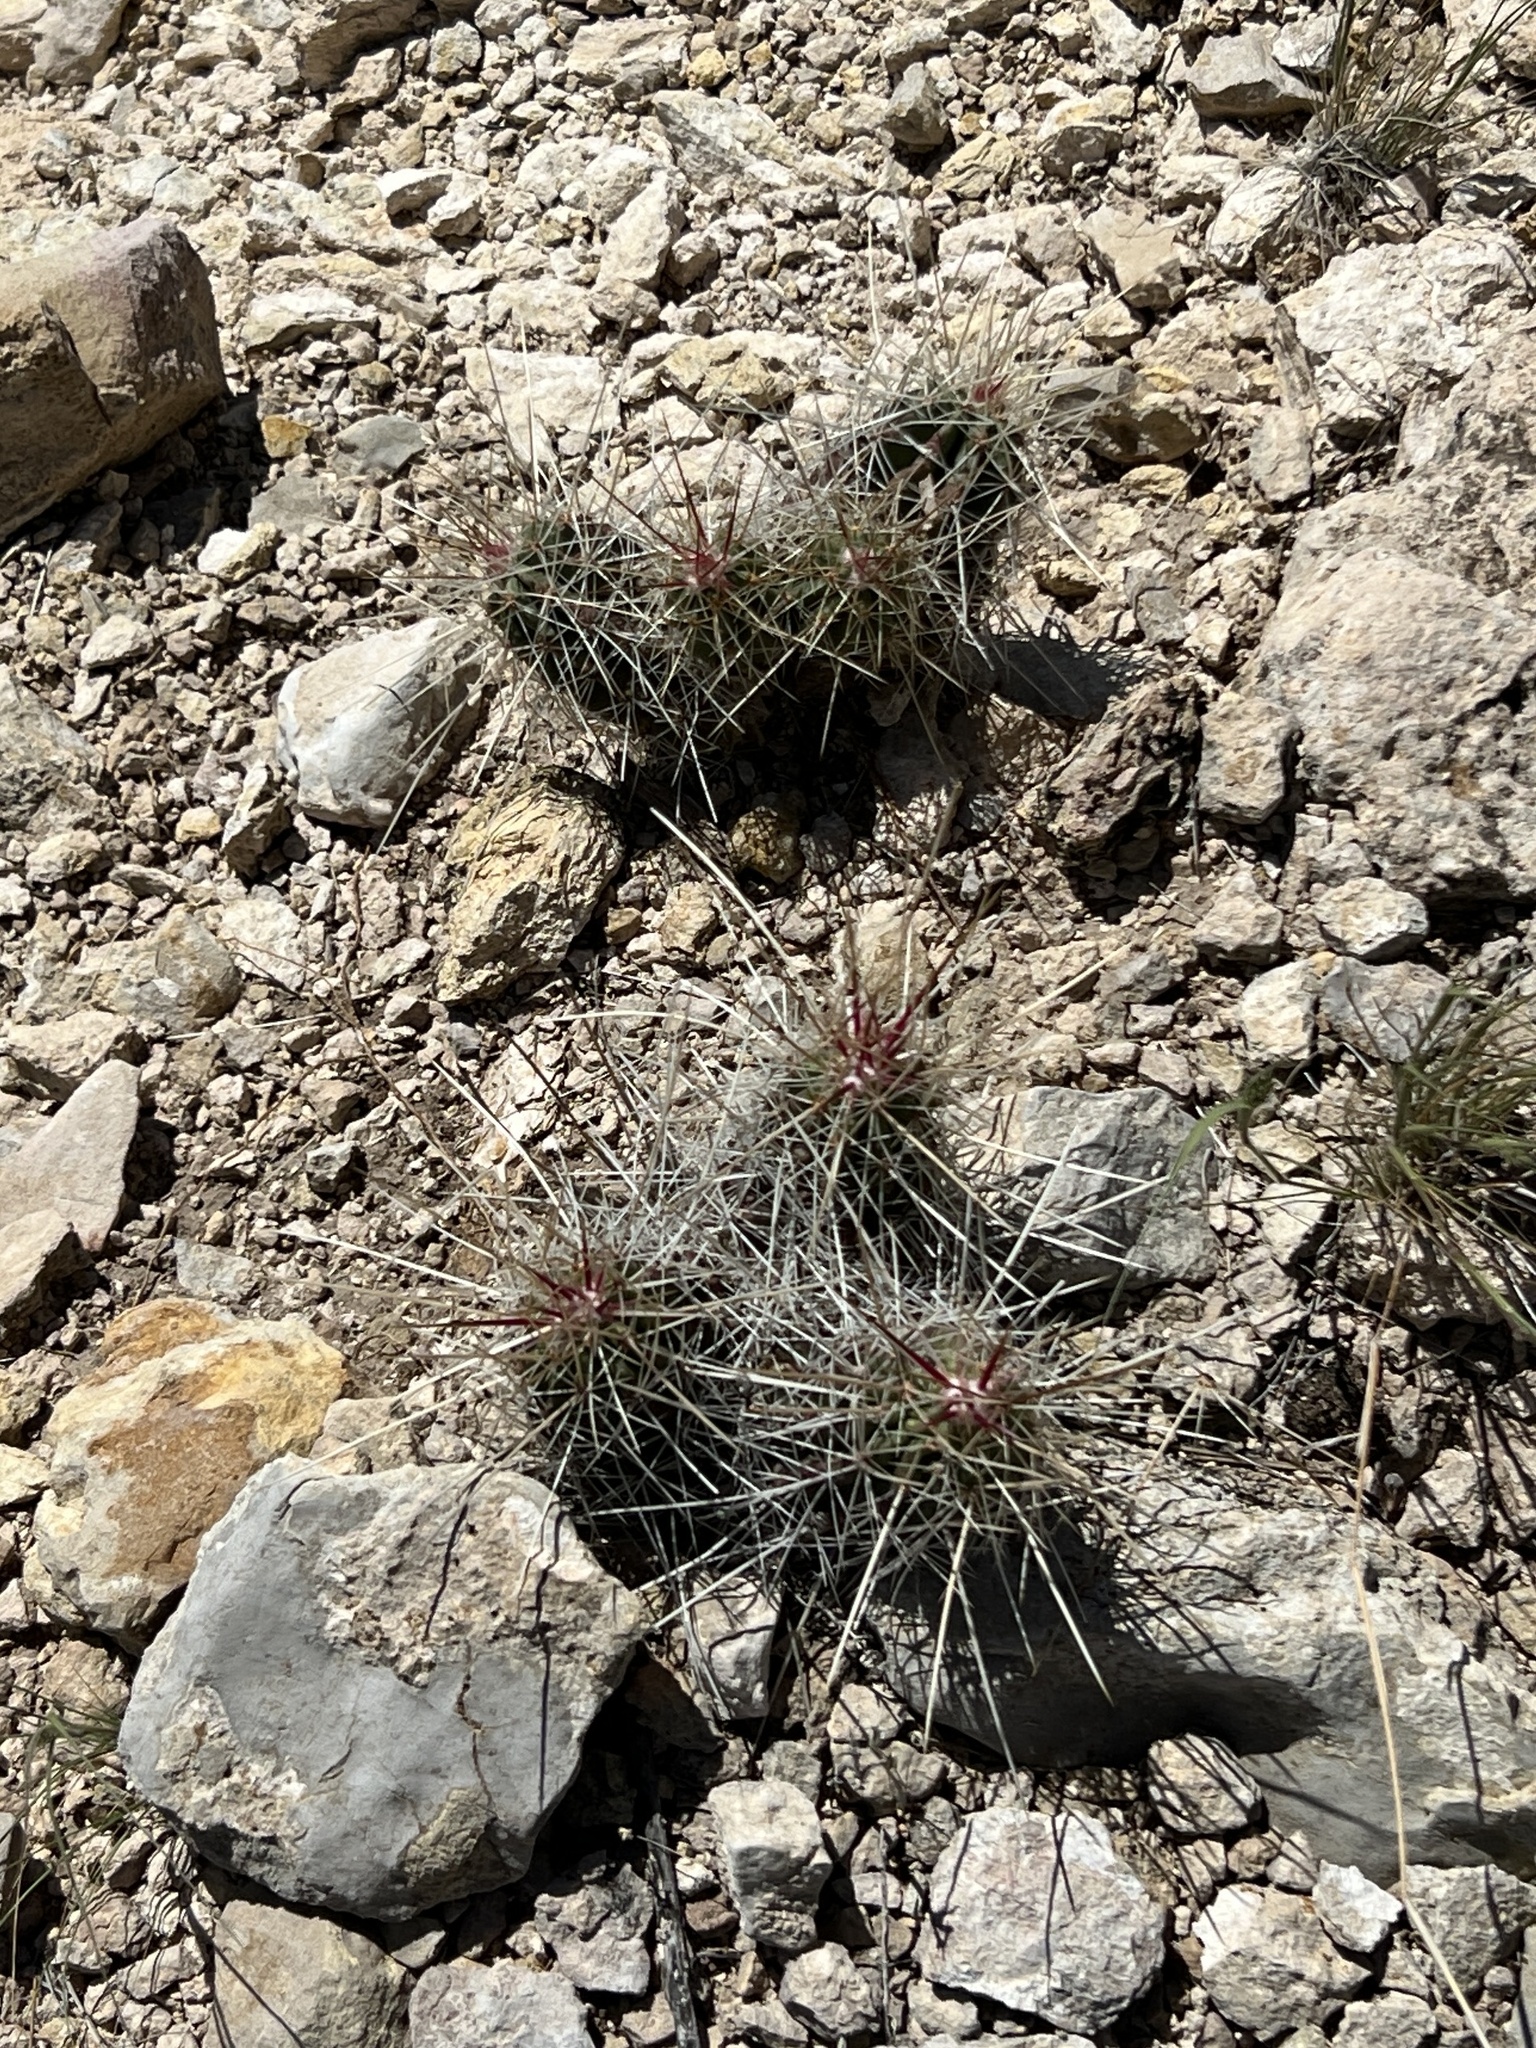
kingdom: Plantae
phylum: Tracheophyta
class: Magnoliopsida
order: Caryophyllales
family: Cactaceae
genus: Echinocereus
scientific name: Echinocereus stramineus
